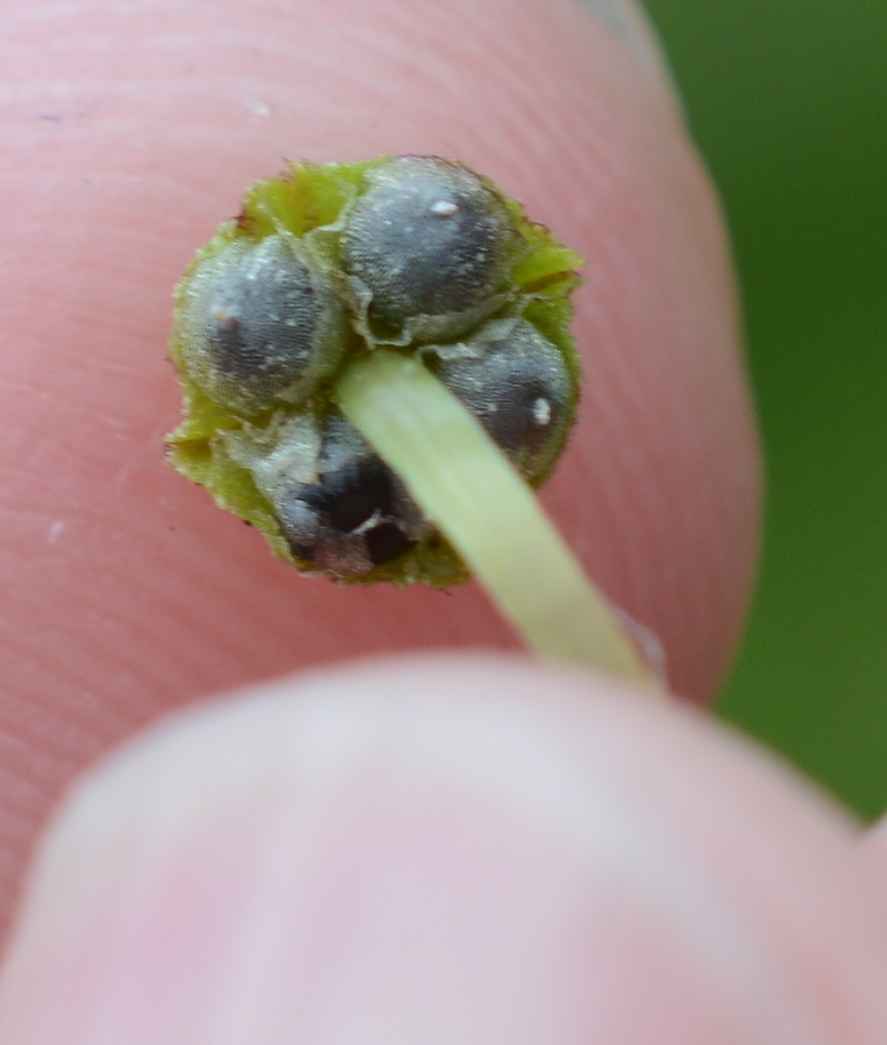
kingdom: Plantae
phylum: Marchantiophyta
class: Marchantiopsida
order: Marchantiales
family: Marchantiaceae
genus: Marchantia
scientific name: Marchantia quadrata
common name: Narrow mushroom-headed liverwort
